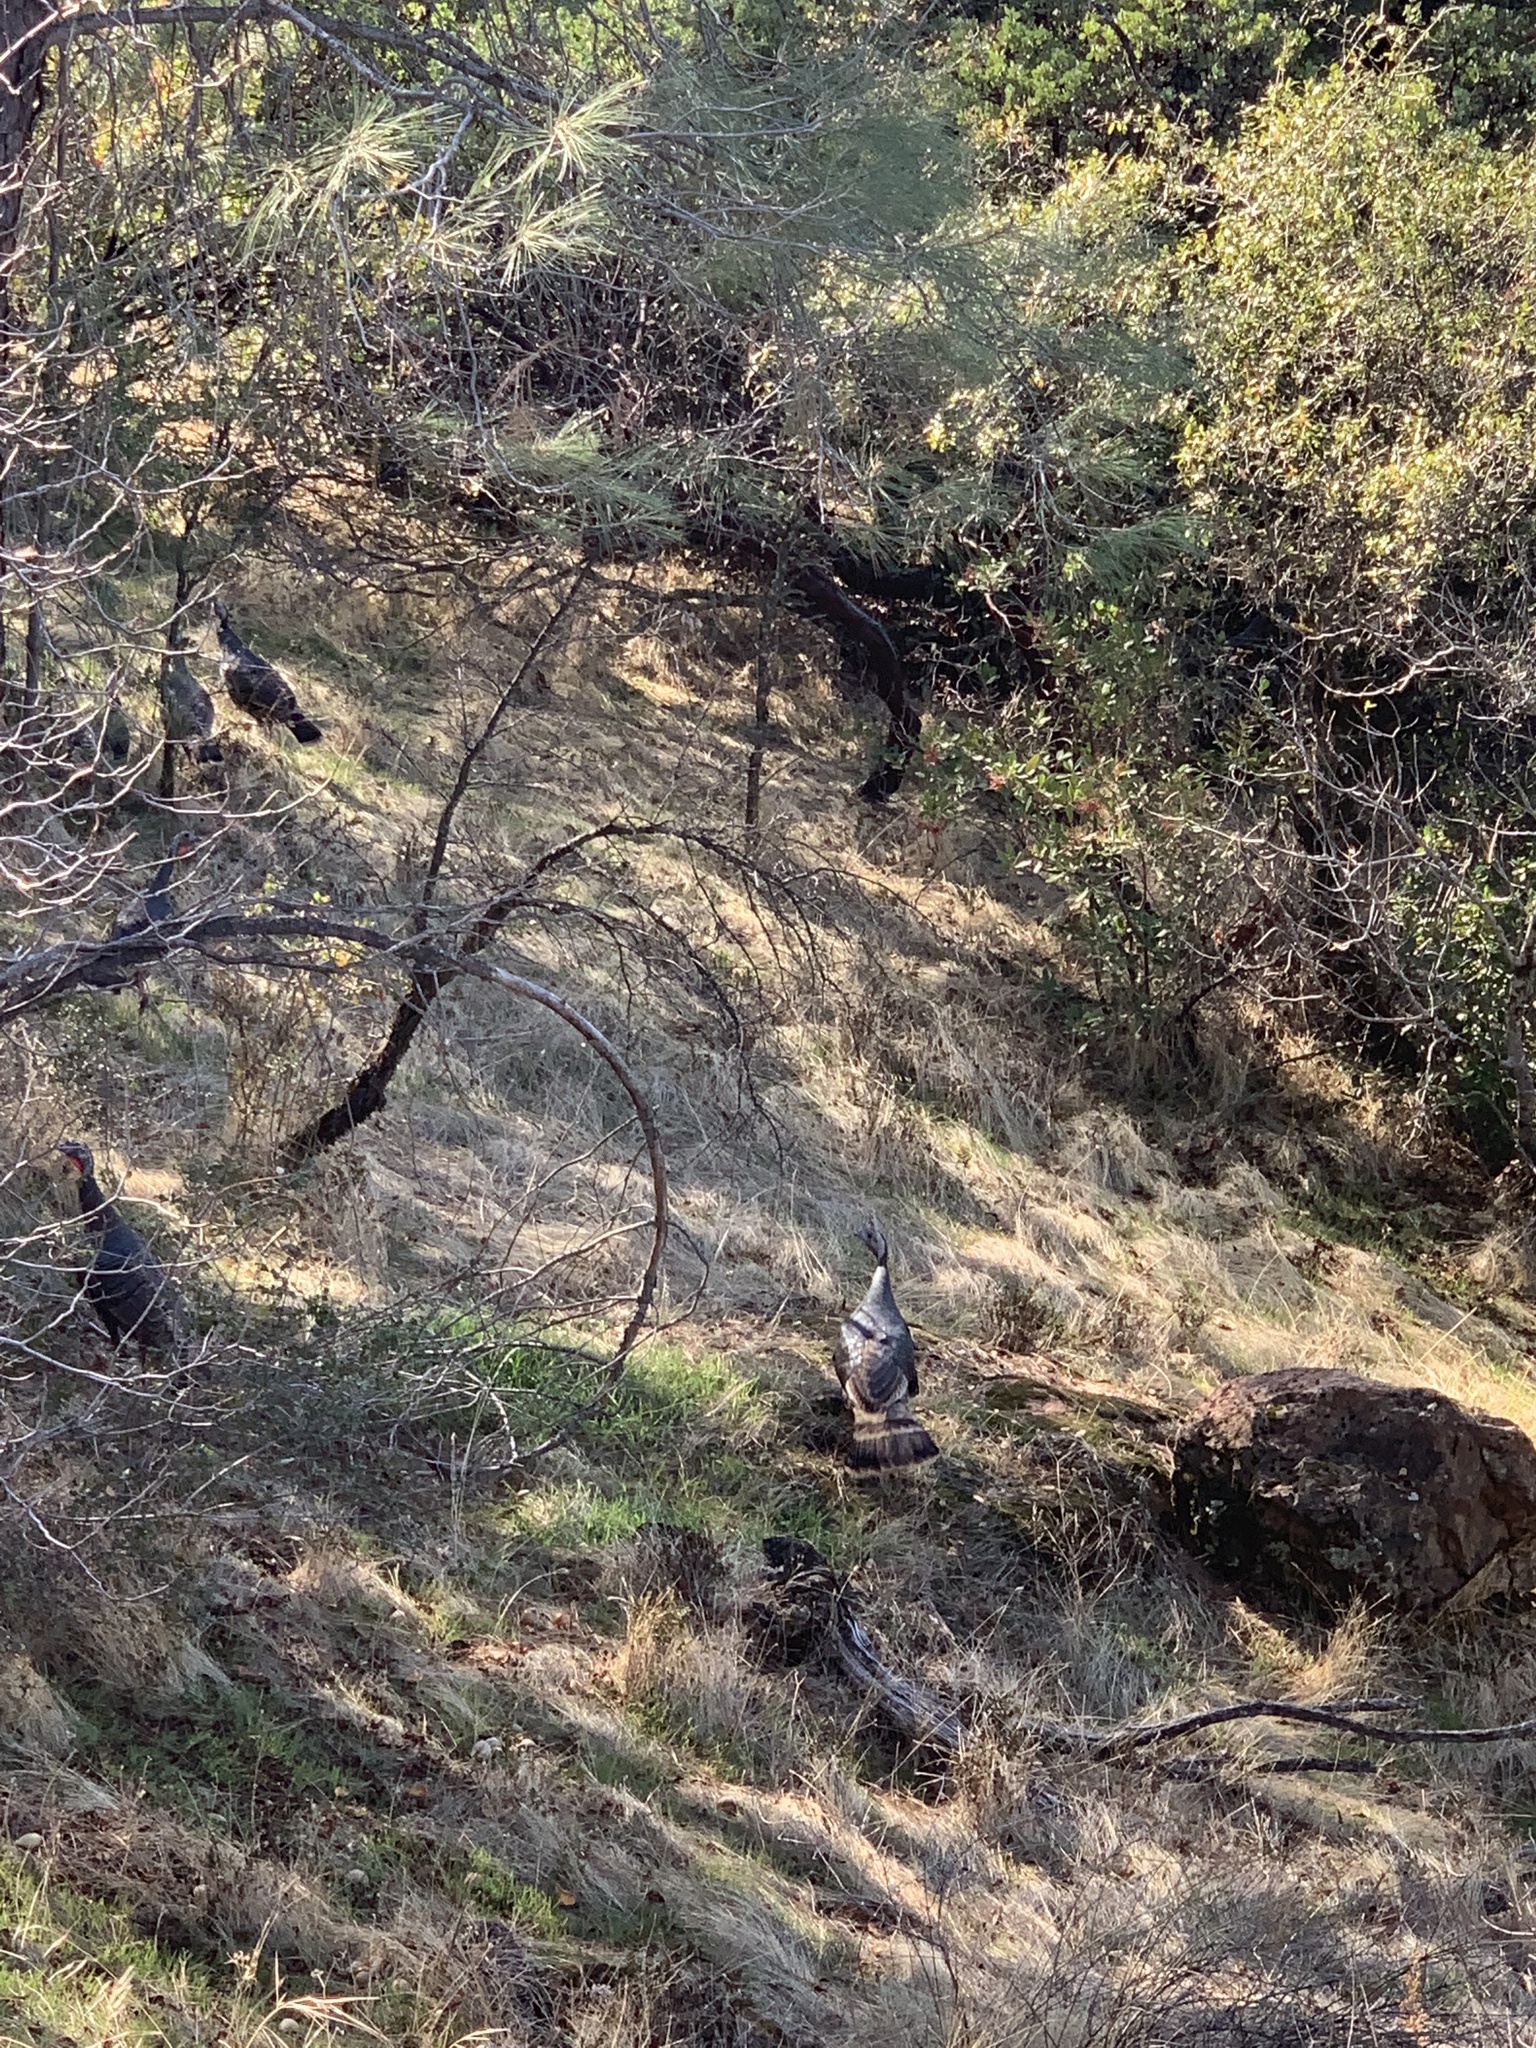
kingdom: Animalia
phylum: Chordata
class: Aves
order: Galliformes
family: Phasianidae
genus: Meleagris
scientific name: Meleagris gallopavo
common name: Wild turkey
